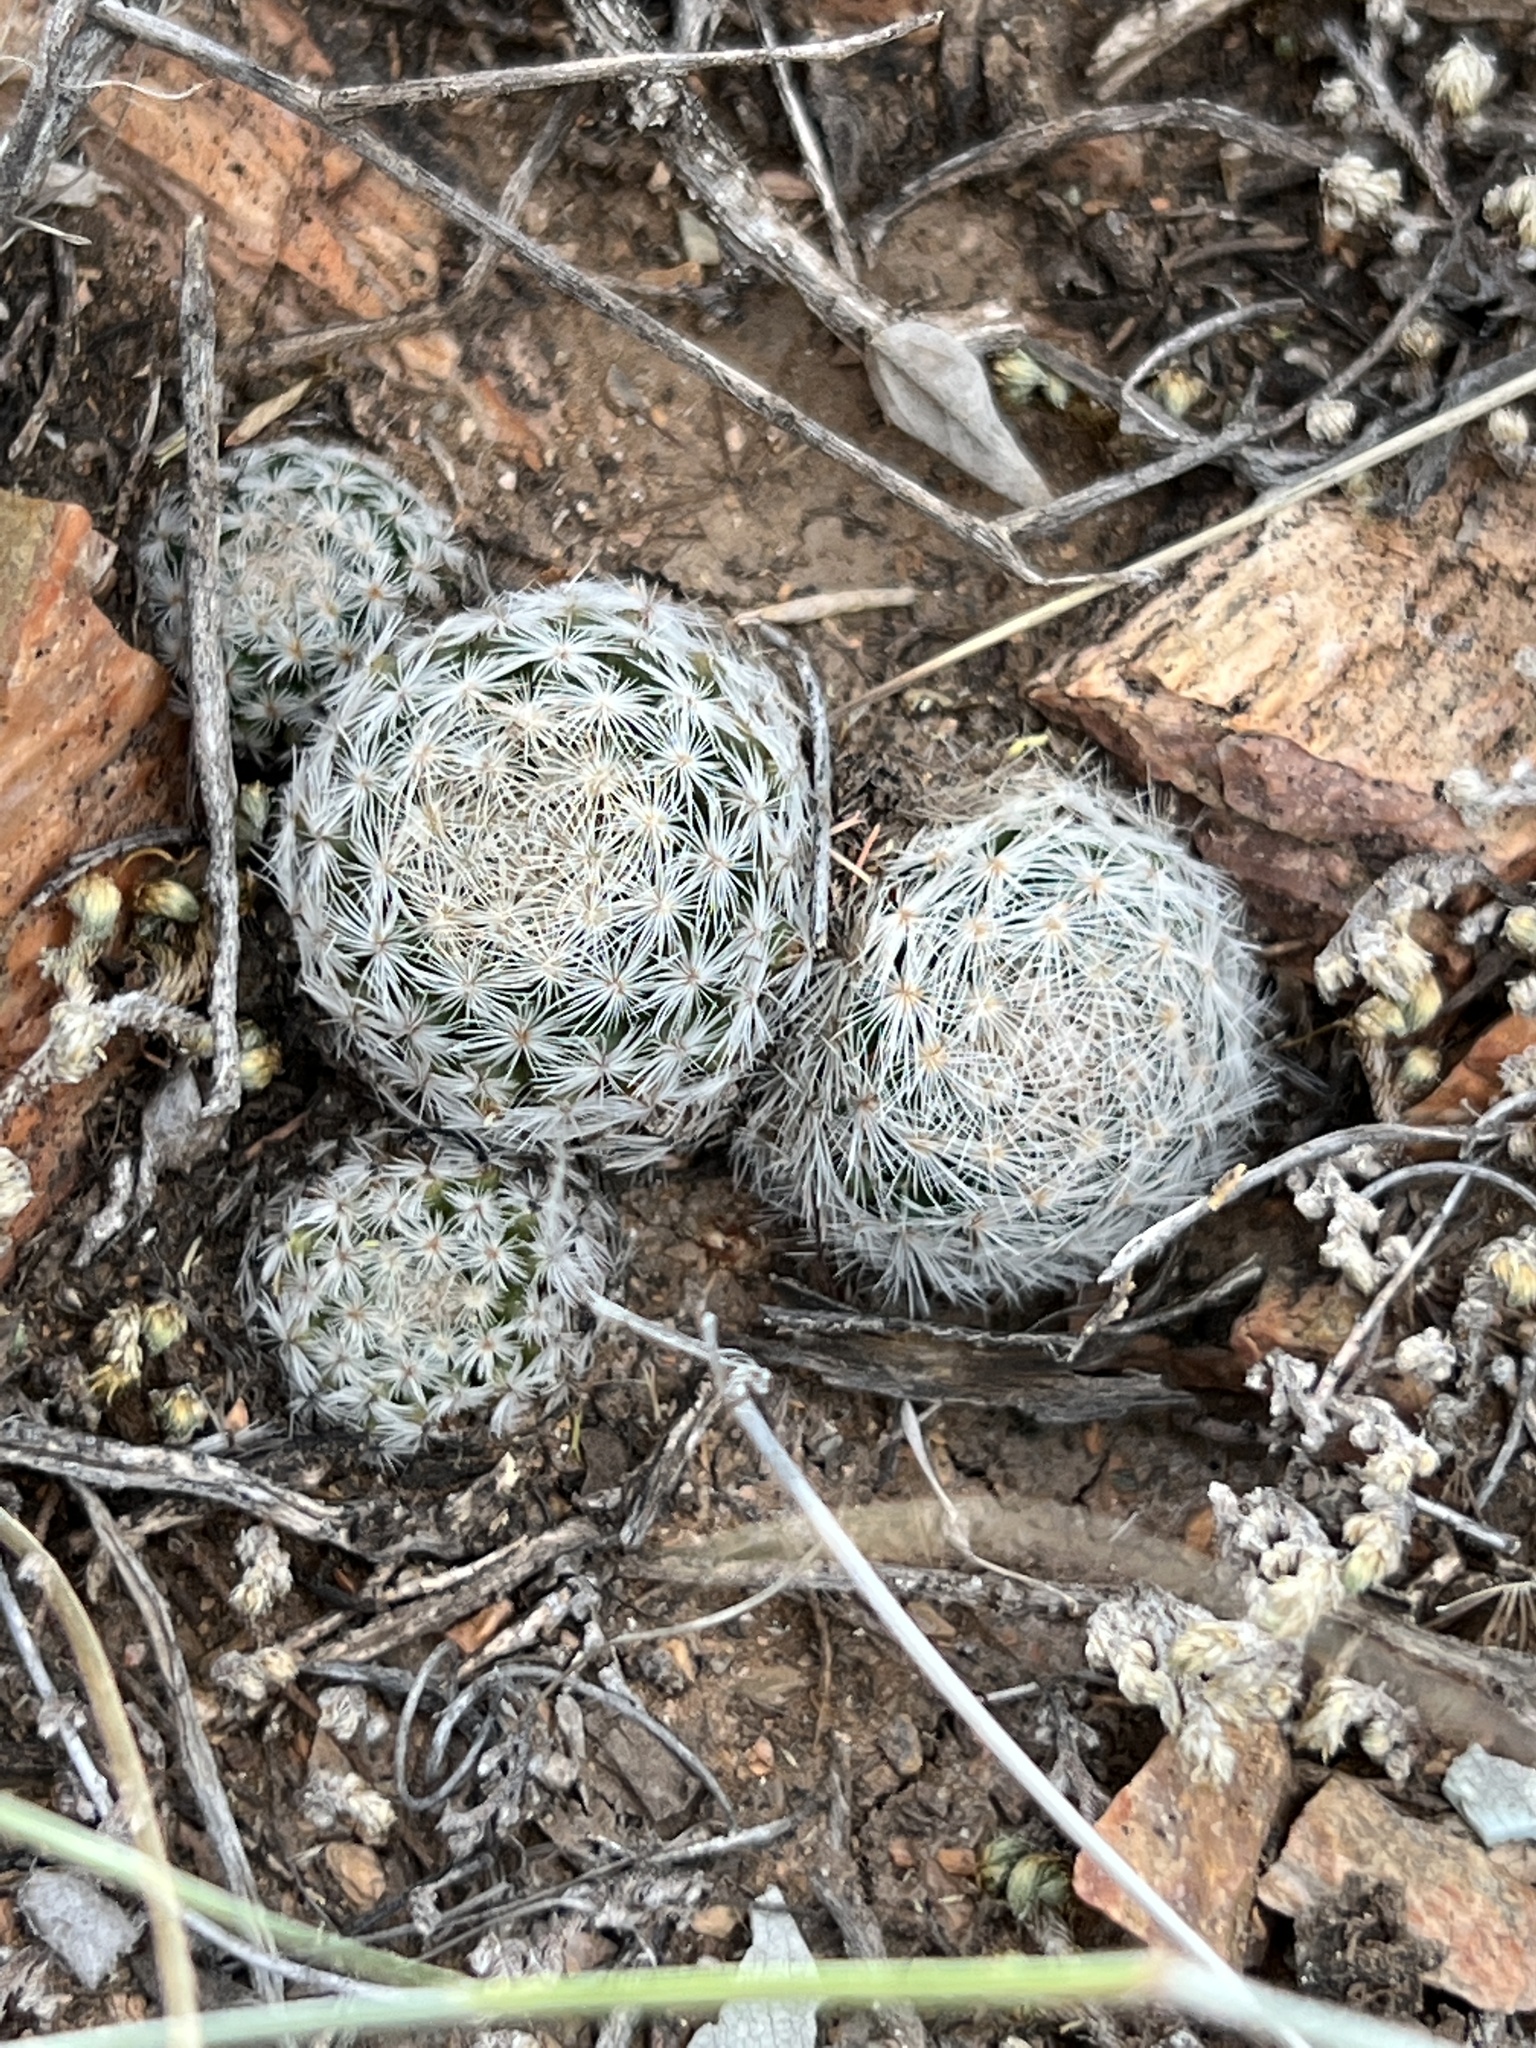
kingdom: Plantae
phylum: Tracheophyta
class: Magnoliopsida
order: Caryophyllales
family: Cactaceae
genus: Mammillaria
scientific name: Mammillaria lasiacantha
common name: Lace-spine nipple cactus
